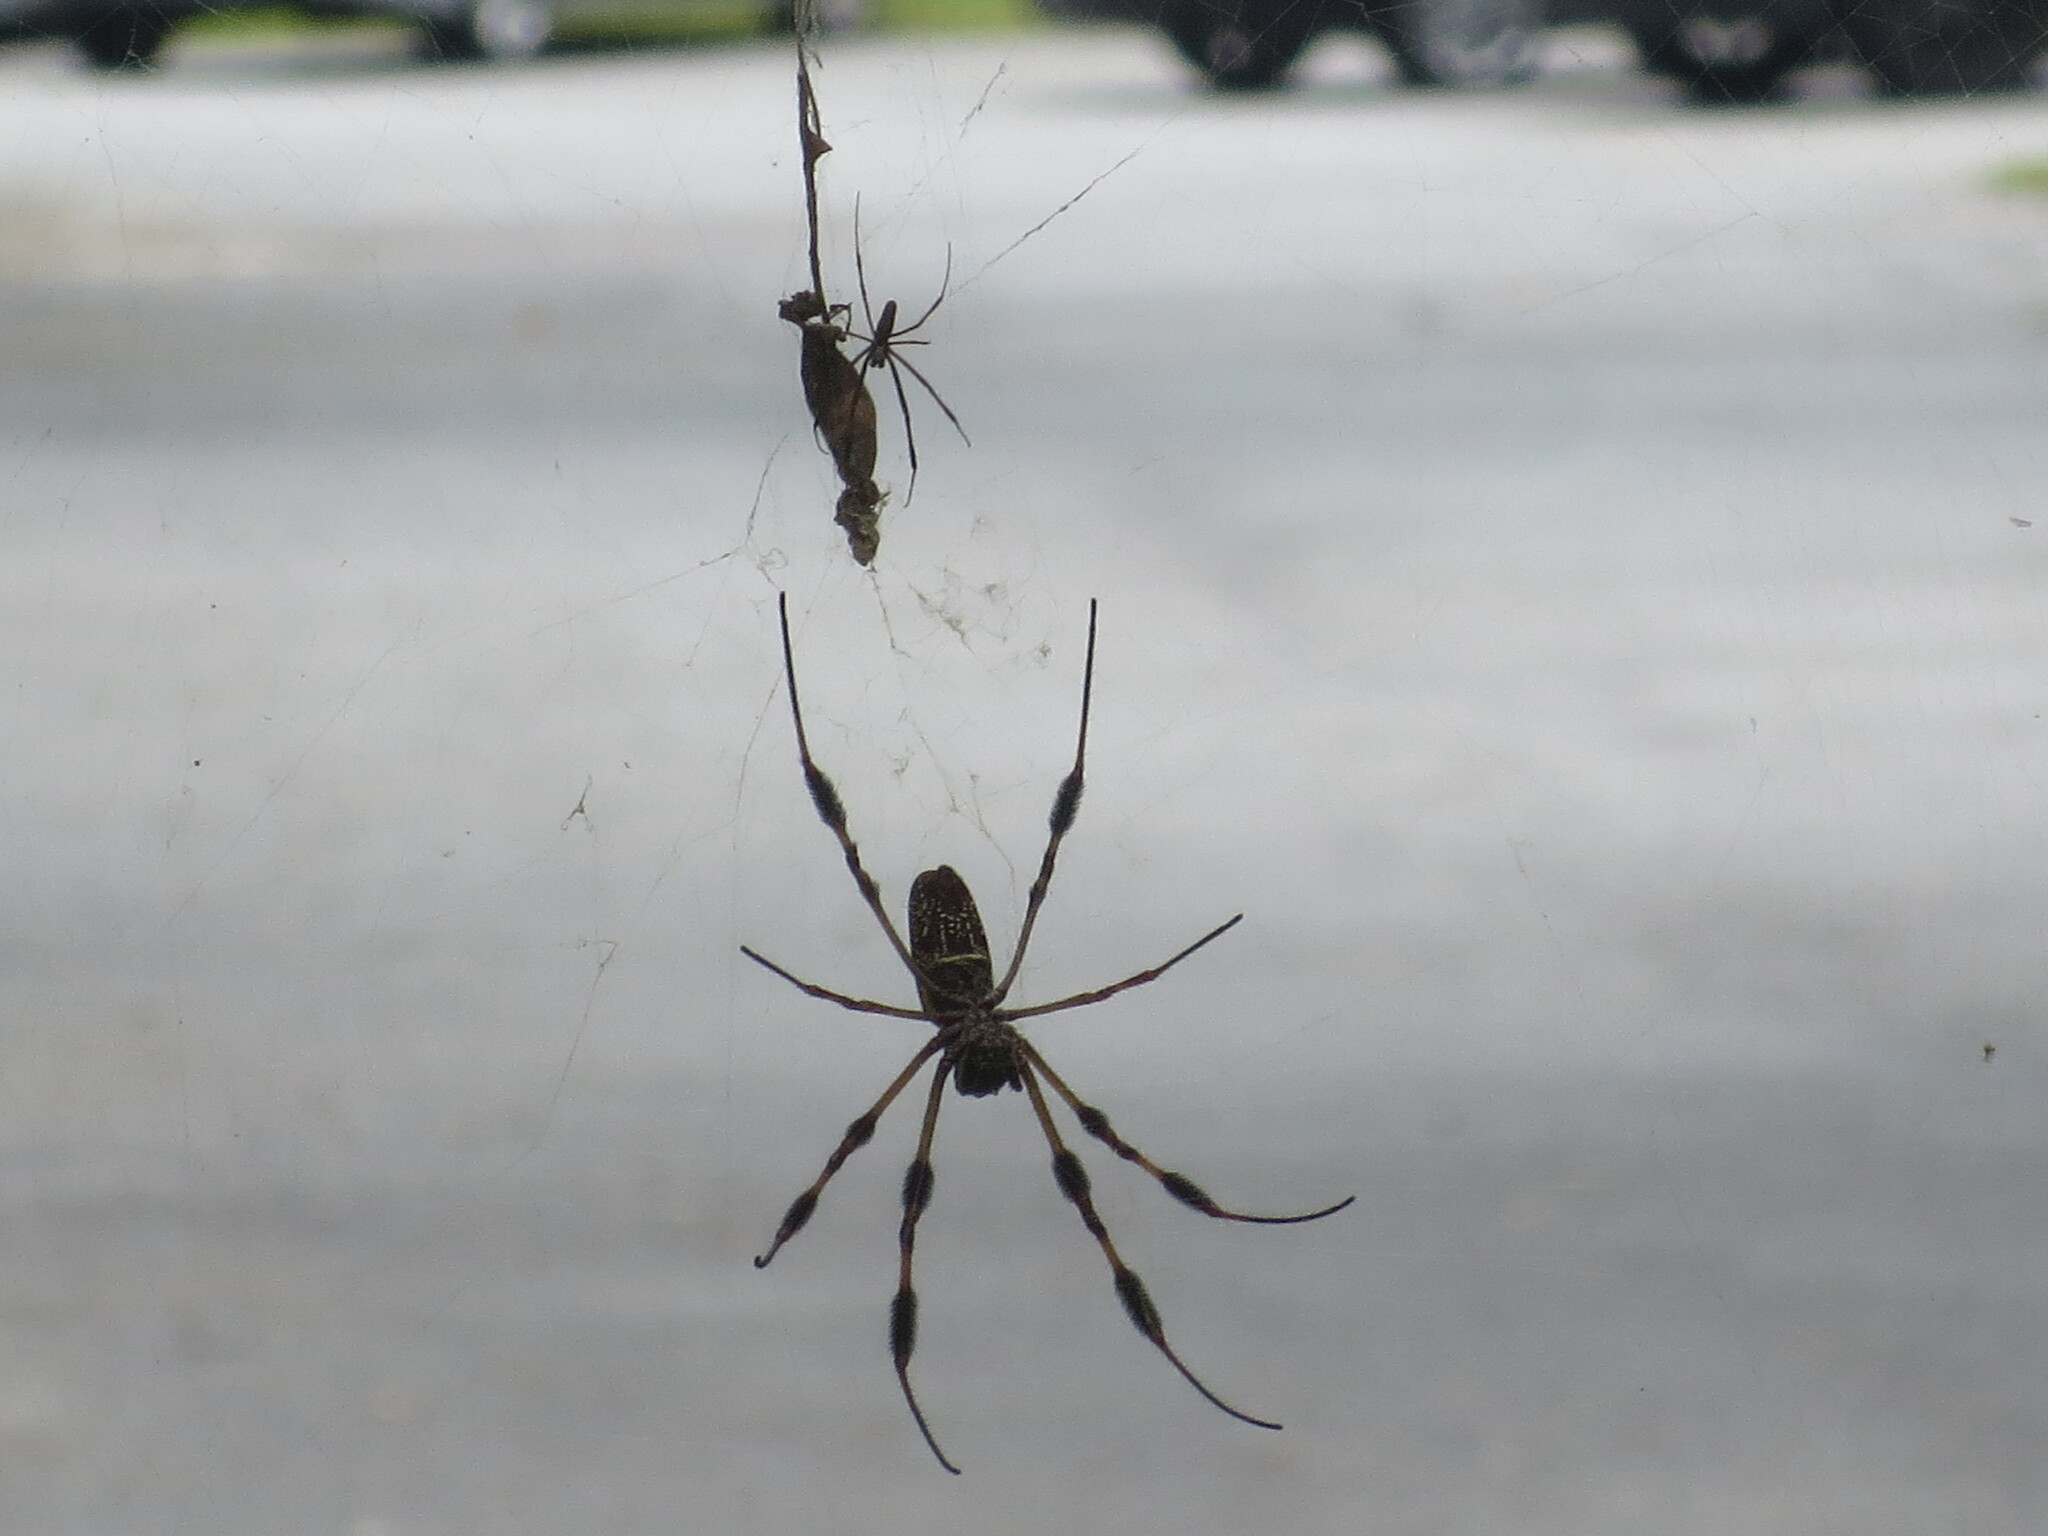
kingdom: Animalia
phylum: Arthropoda
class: Arachnida
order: Araneae
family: Araneidae
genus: Trichonephila
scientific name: Trichonephila clavipes
